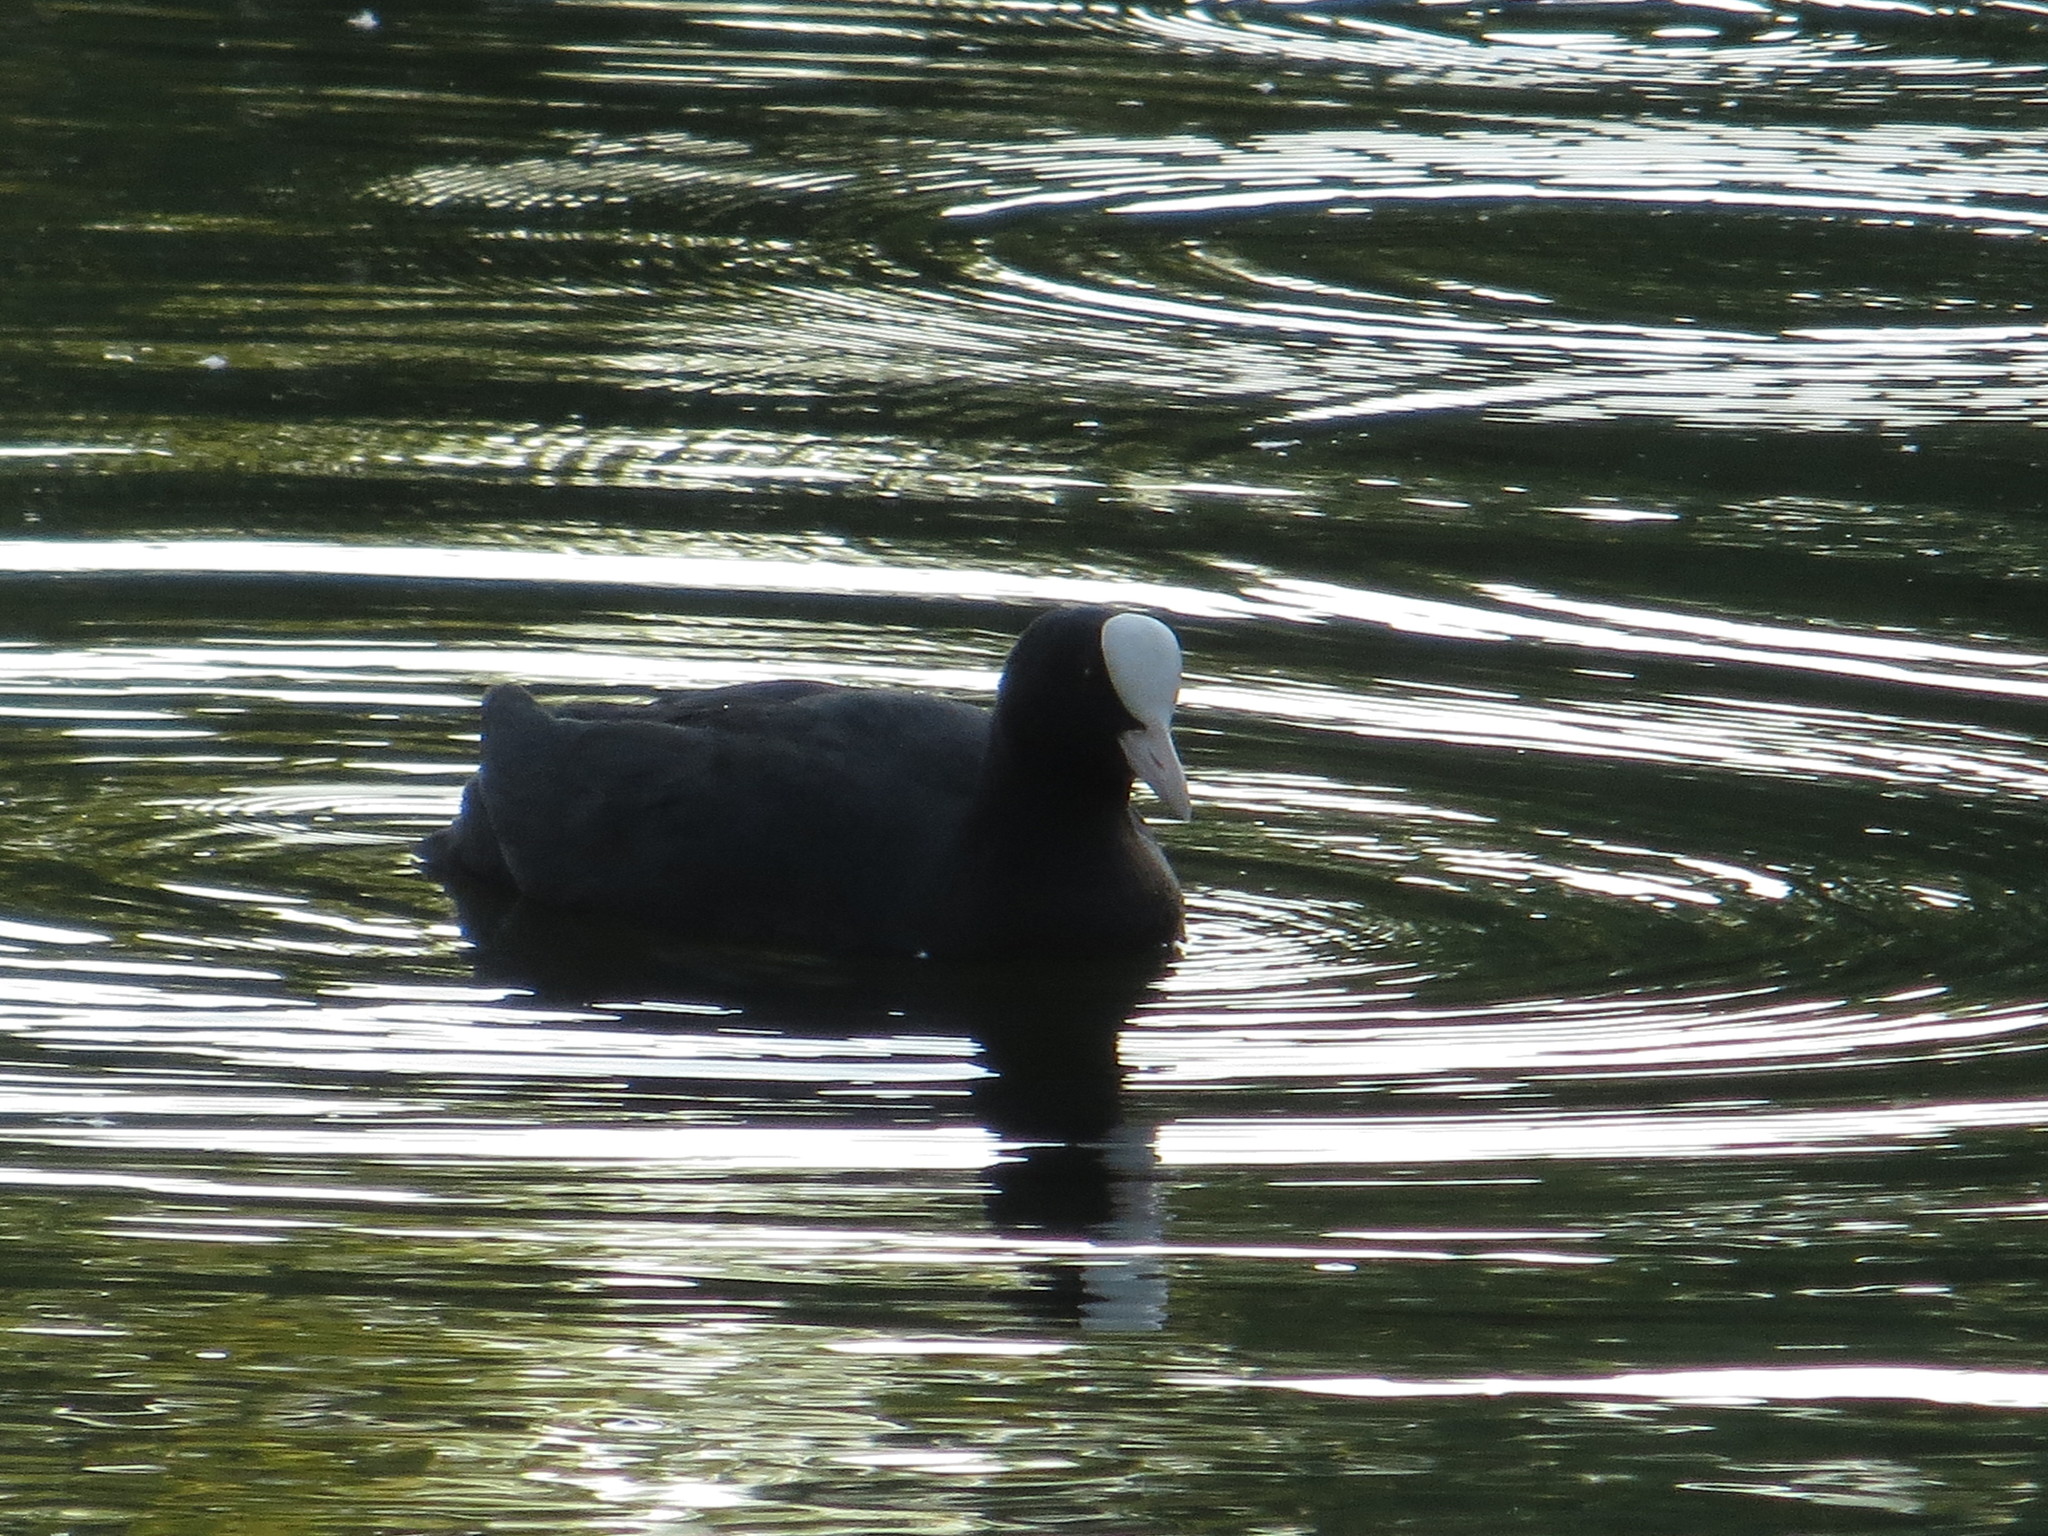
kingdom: Animalia
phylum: Chordata
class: Aves
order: Gruiformes
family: Rallidae
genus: Fulica
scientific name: Fulica atra
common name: Eurasian coot
